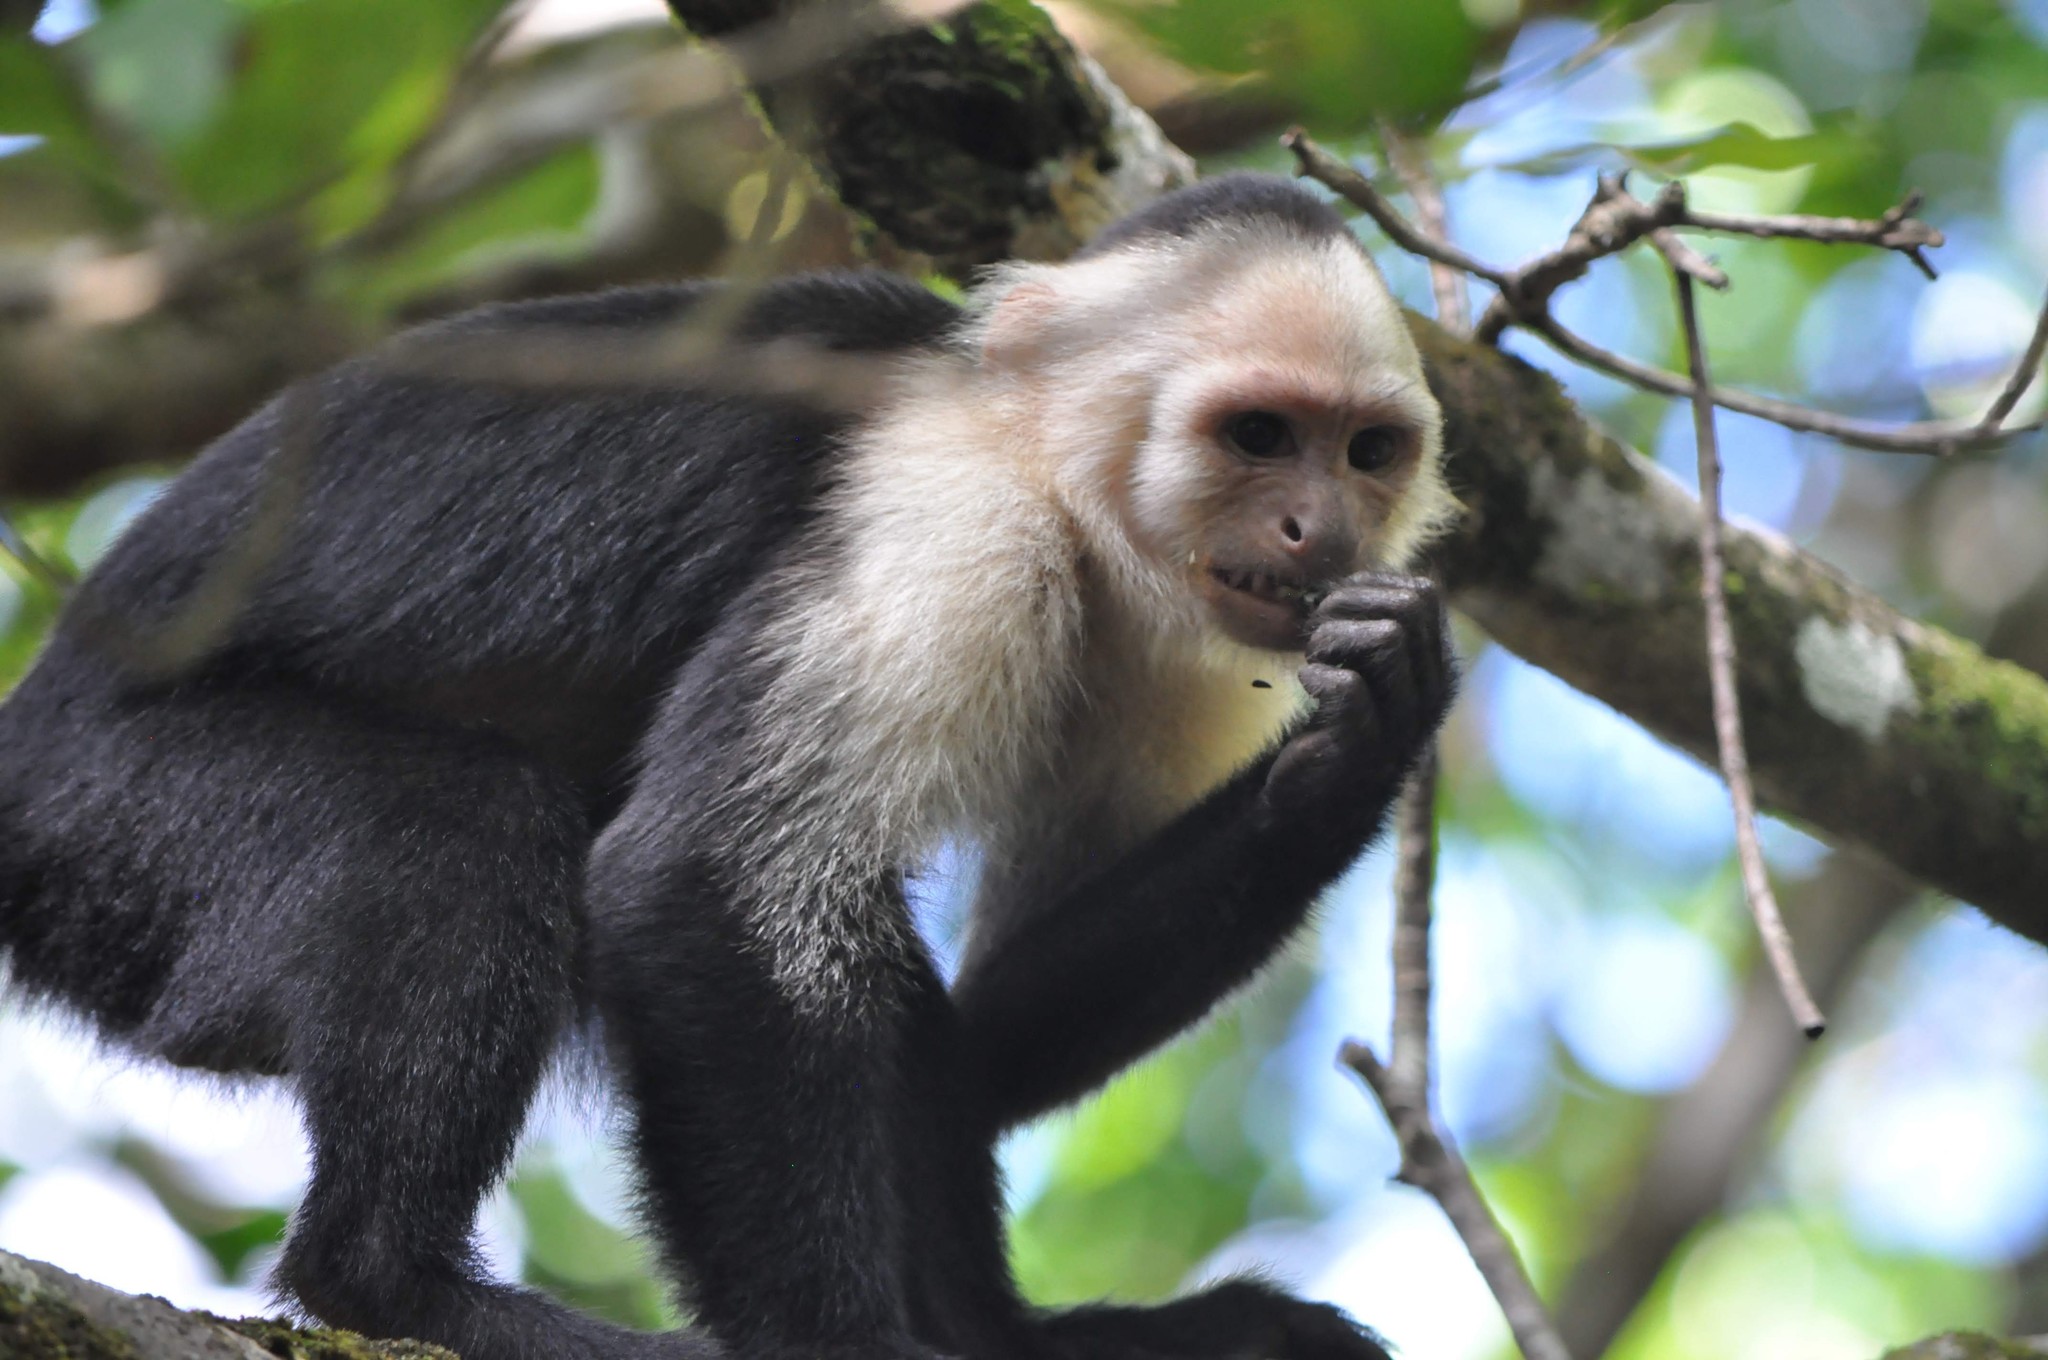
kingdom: Animalia
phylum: Chordata
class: Mammalia
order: Primates
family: Cebidae
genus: Cebus
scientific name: Cebus imitator
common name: Panamanian white-faced capuchin
